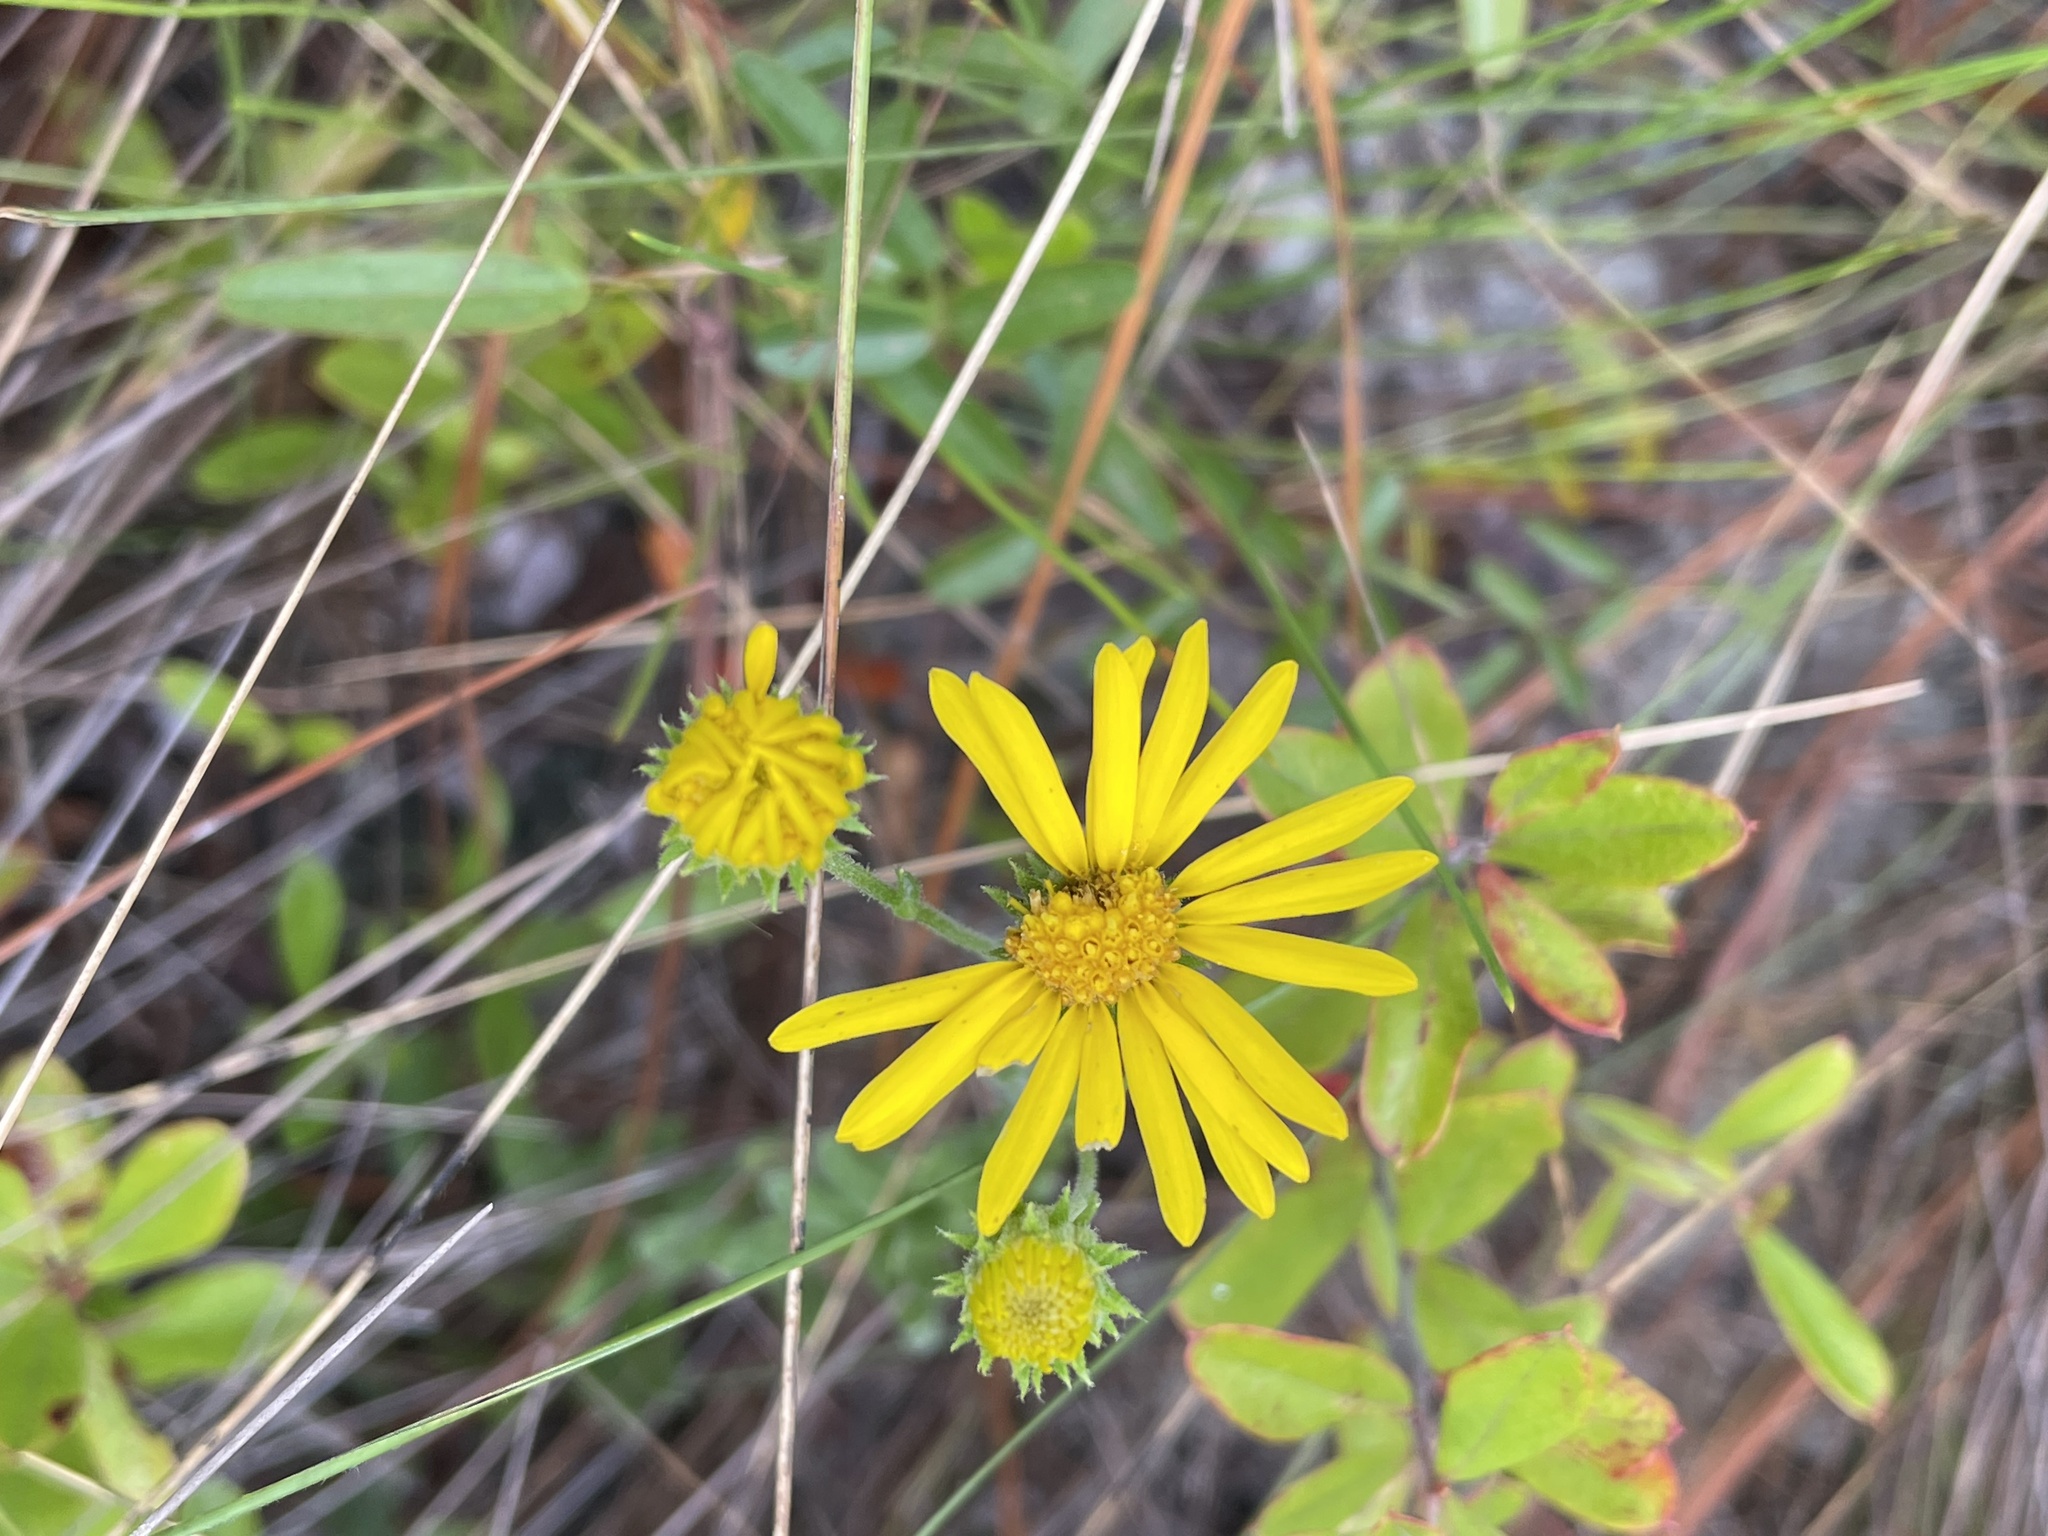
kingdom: Plantae
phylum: Tracheophyta
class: Magnoliopsida
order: Asterales
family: Asteraceae
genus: Chrysopsis
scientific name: Chrysopsis gossypina
